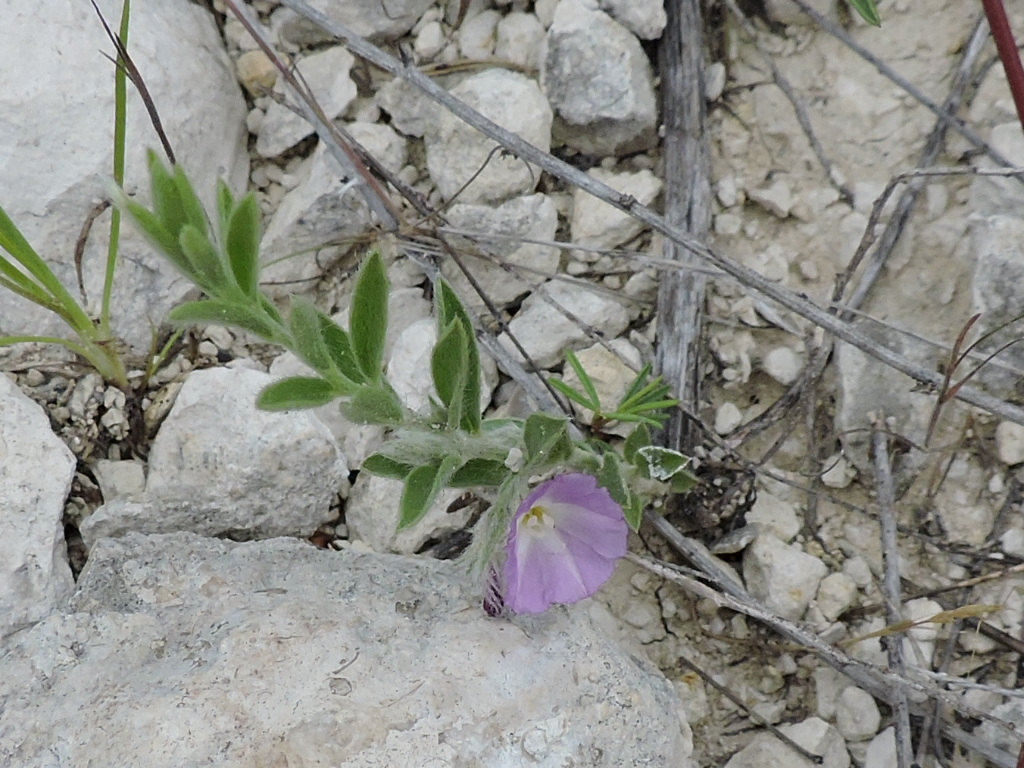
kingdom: Plantae
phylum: Tracheophyta
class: Magnoliopsida
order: Solanales
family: Convolvulaceae
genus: Evolvulus
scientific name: Evolvulus nuttallianus
